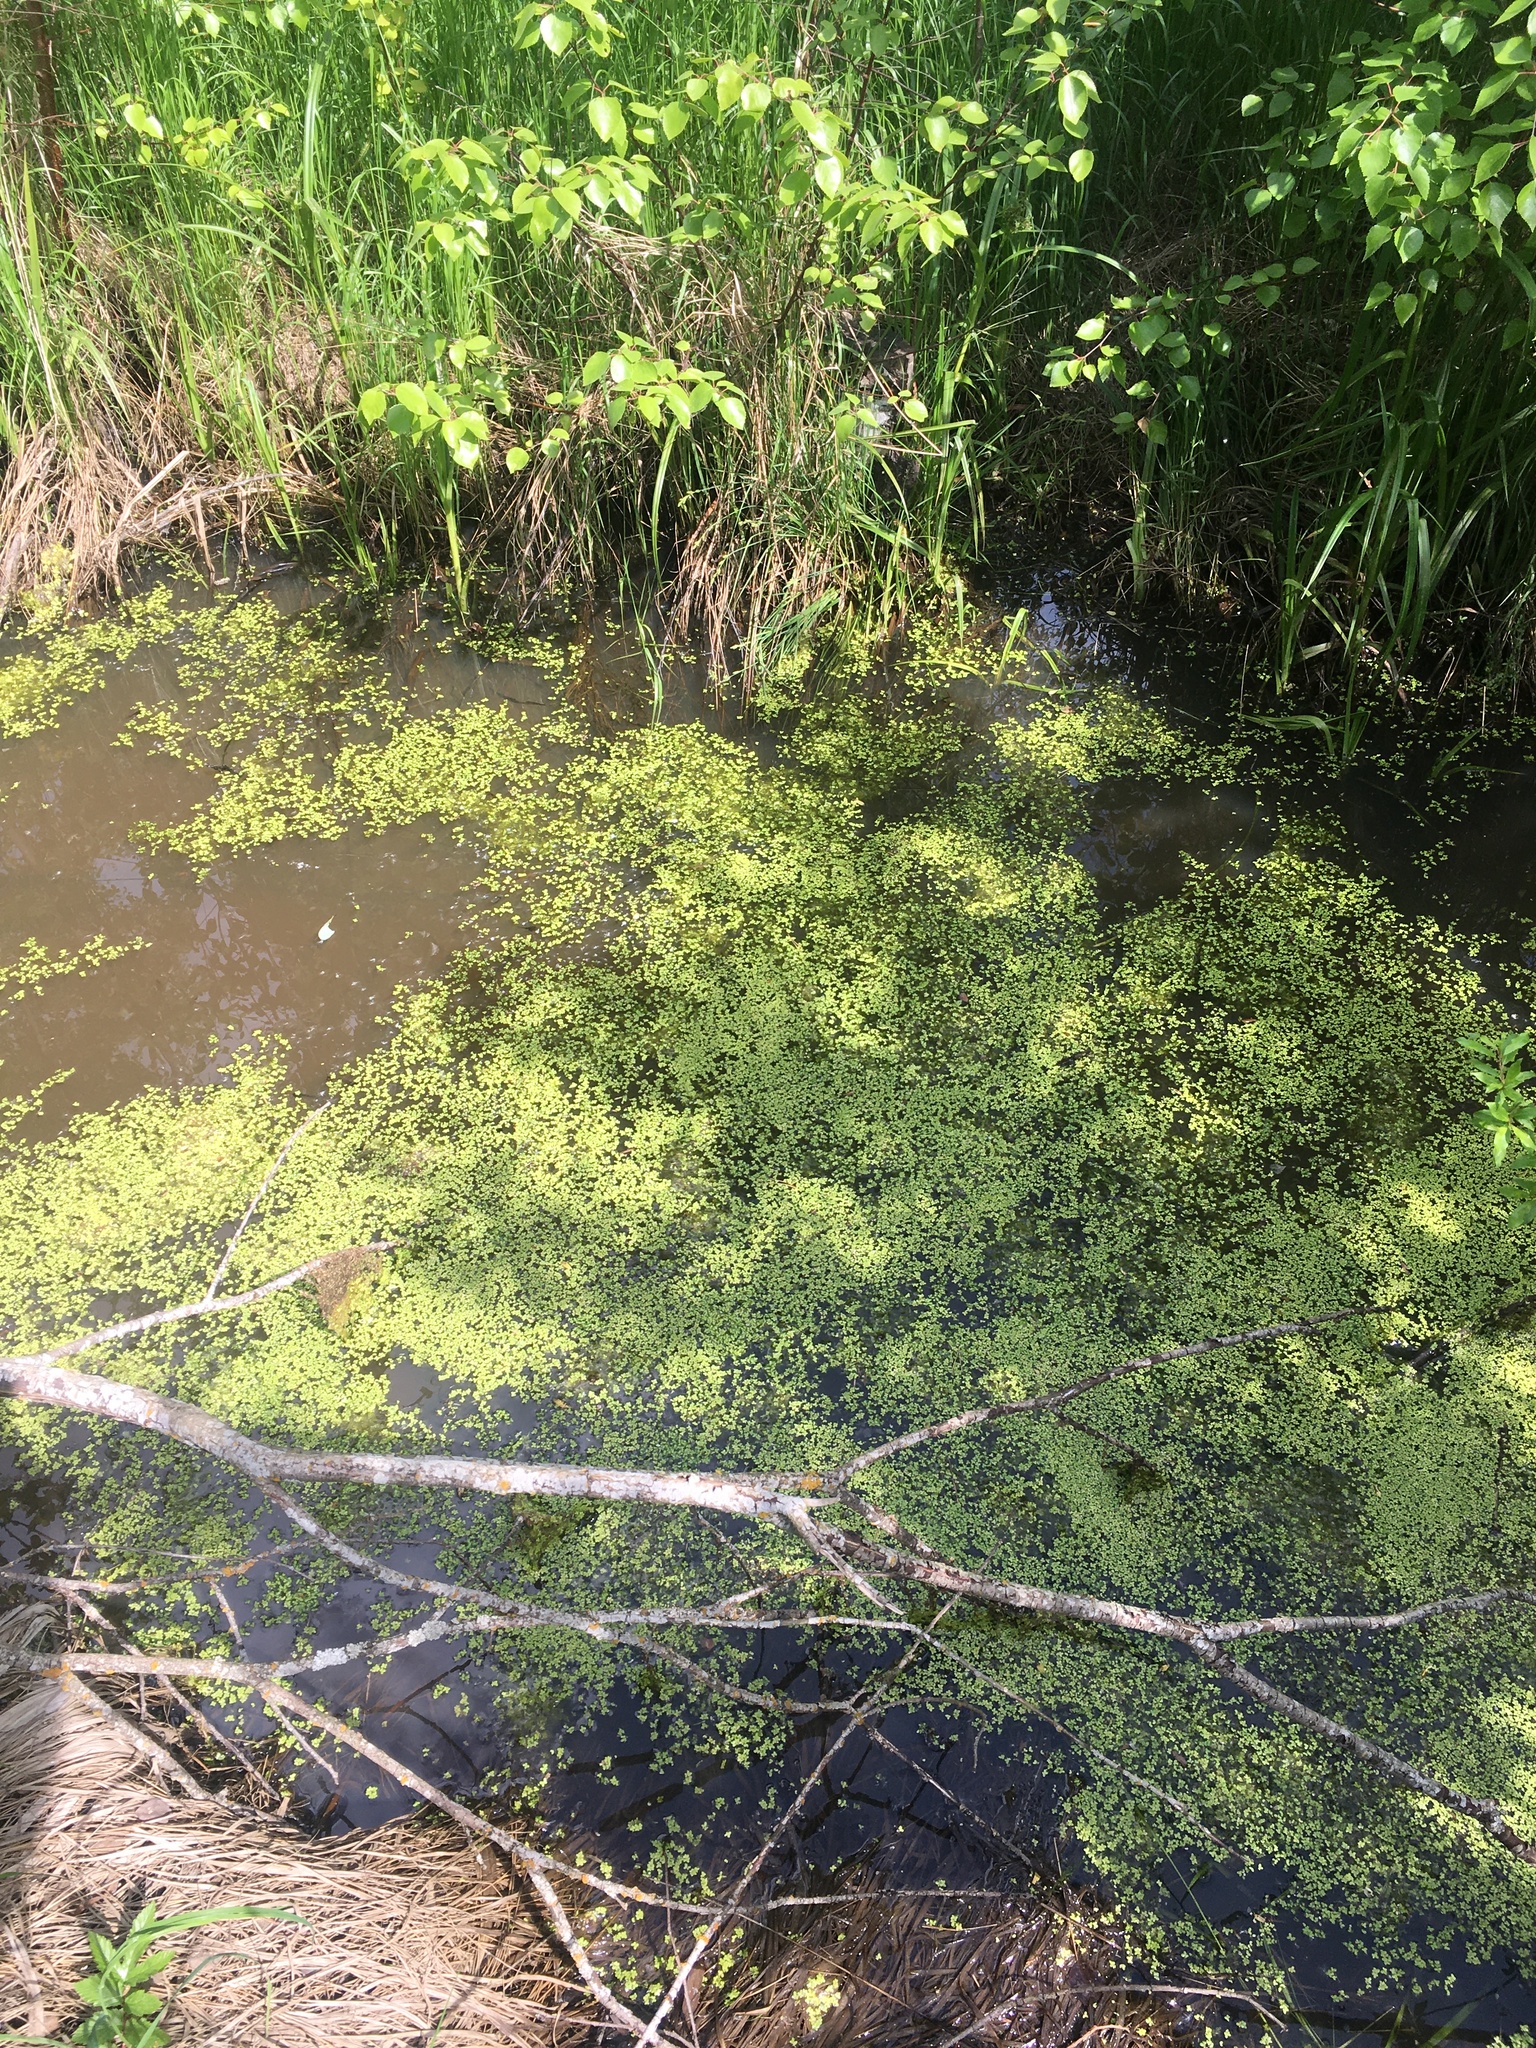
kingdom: Plantae
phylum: Tracheophyta
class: Liliopsida
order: Alismatales
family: Araceae
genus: Lemna
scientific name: Lemna
